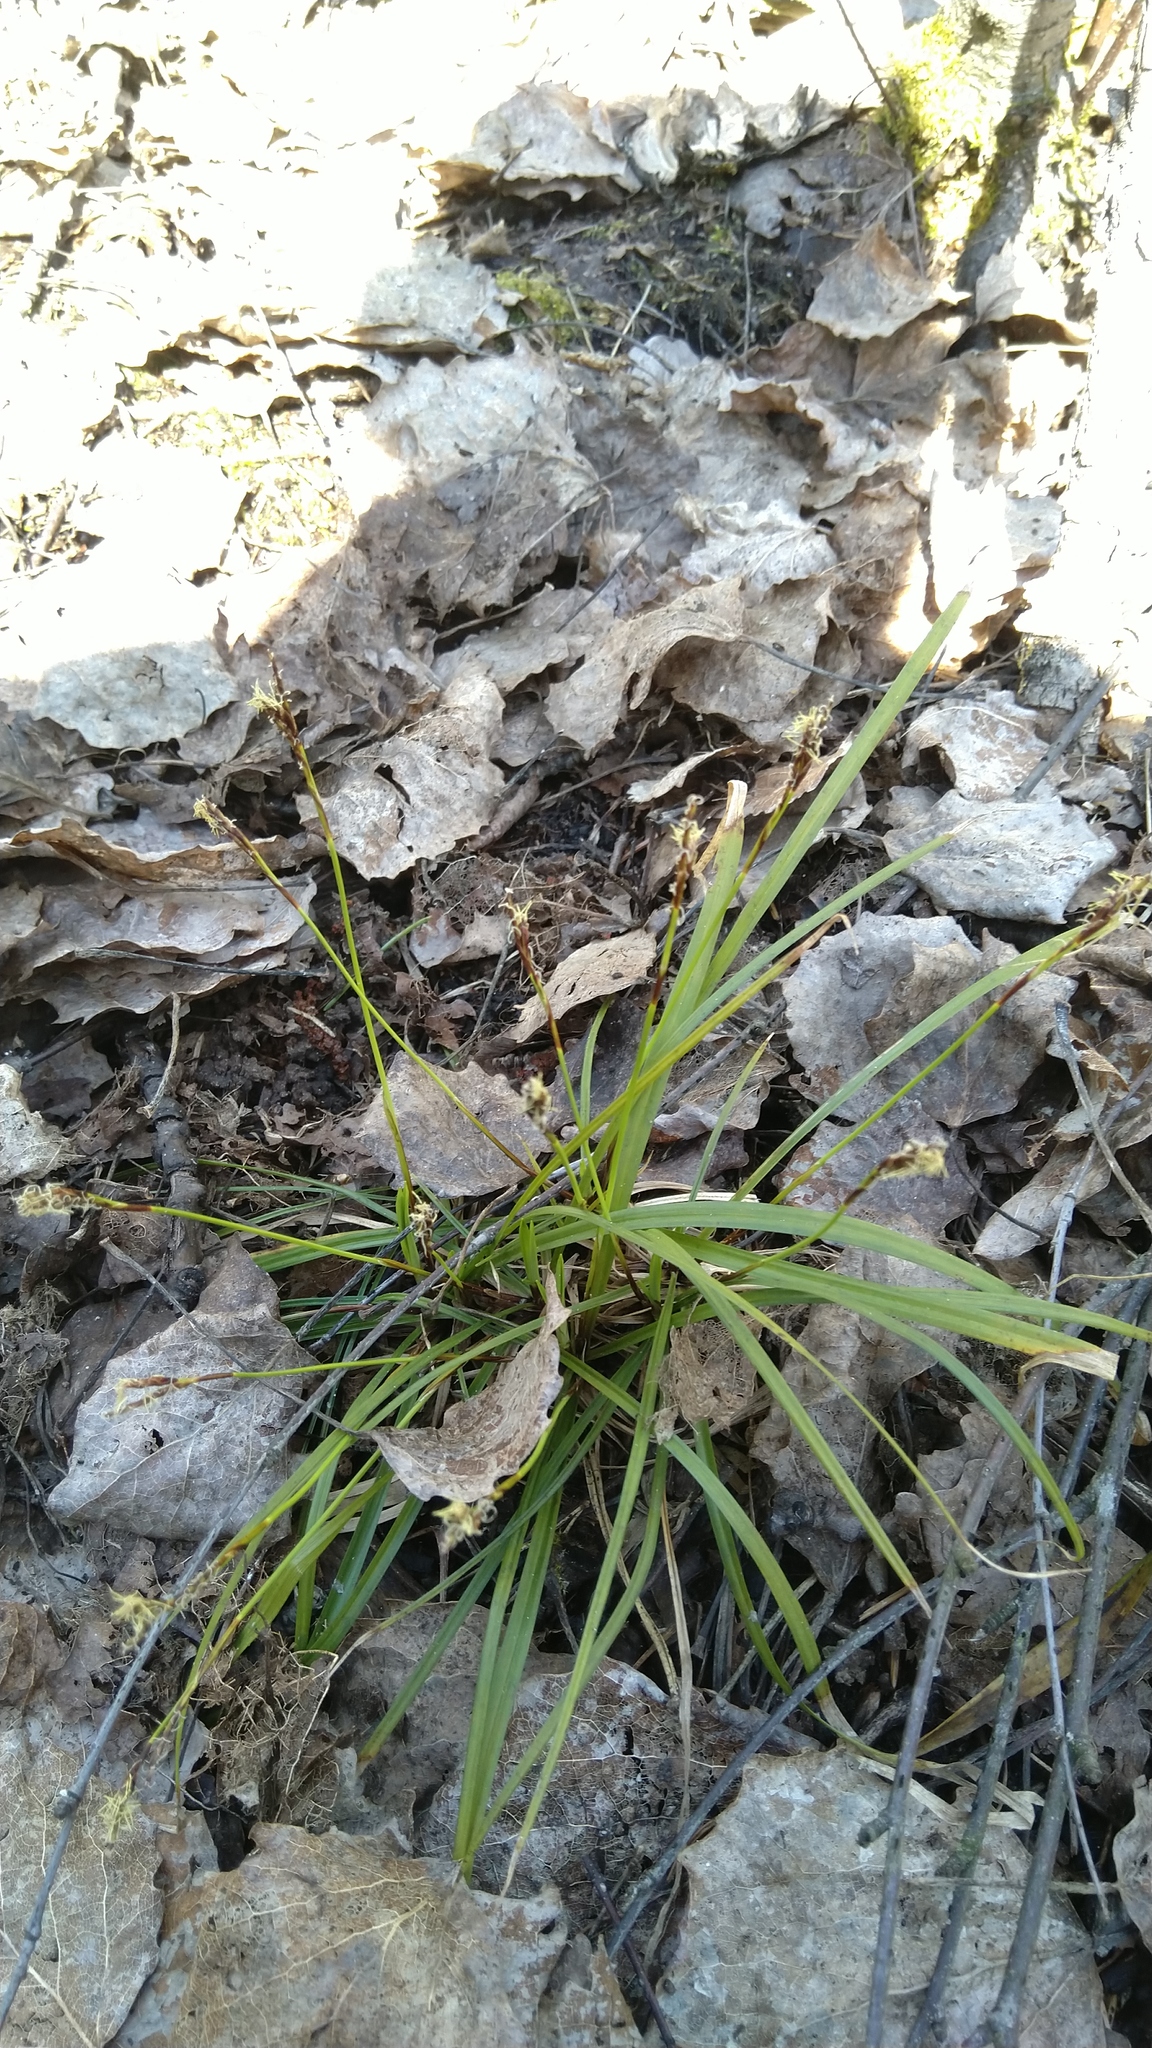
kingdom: Plantae
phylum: Tracheophyta
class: Liliopsida
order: Poales
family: Cyperaceae
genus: Carex
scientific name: Carex digitata
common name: Fingered sedge
